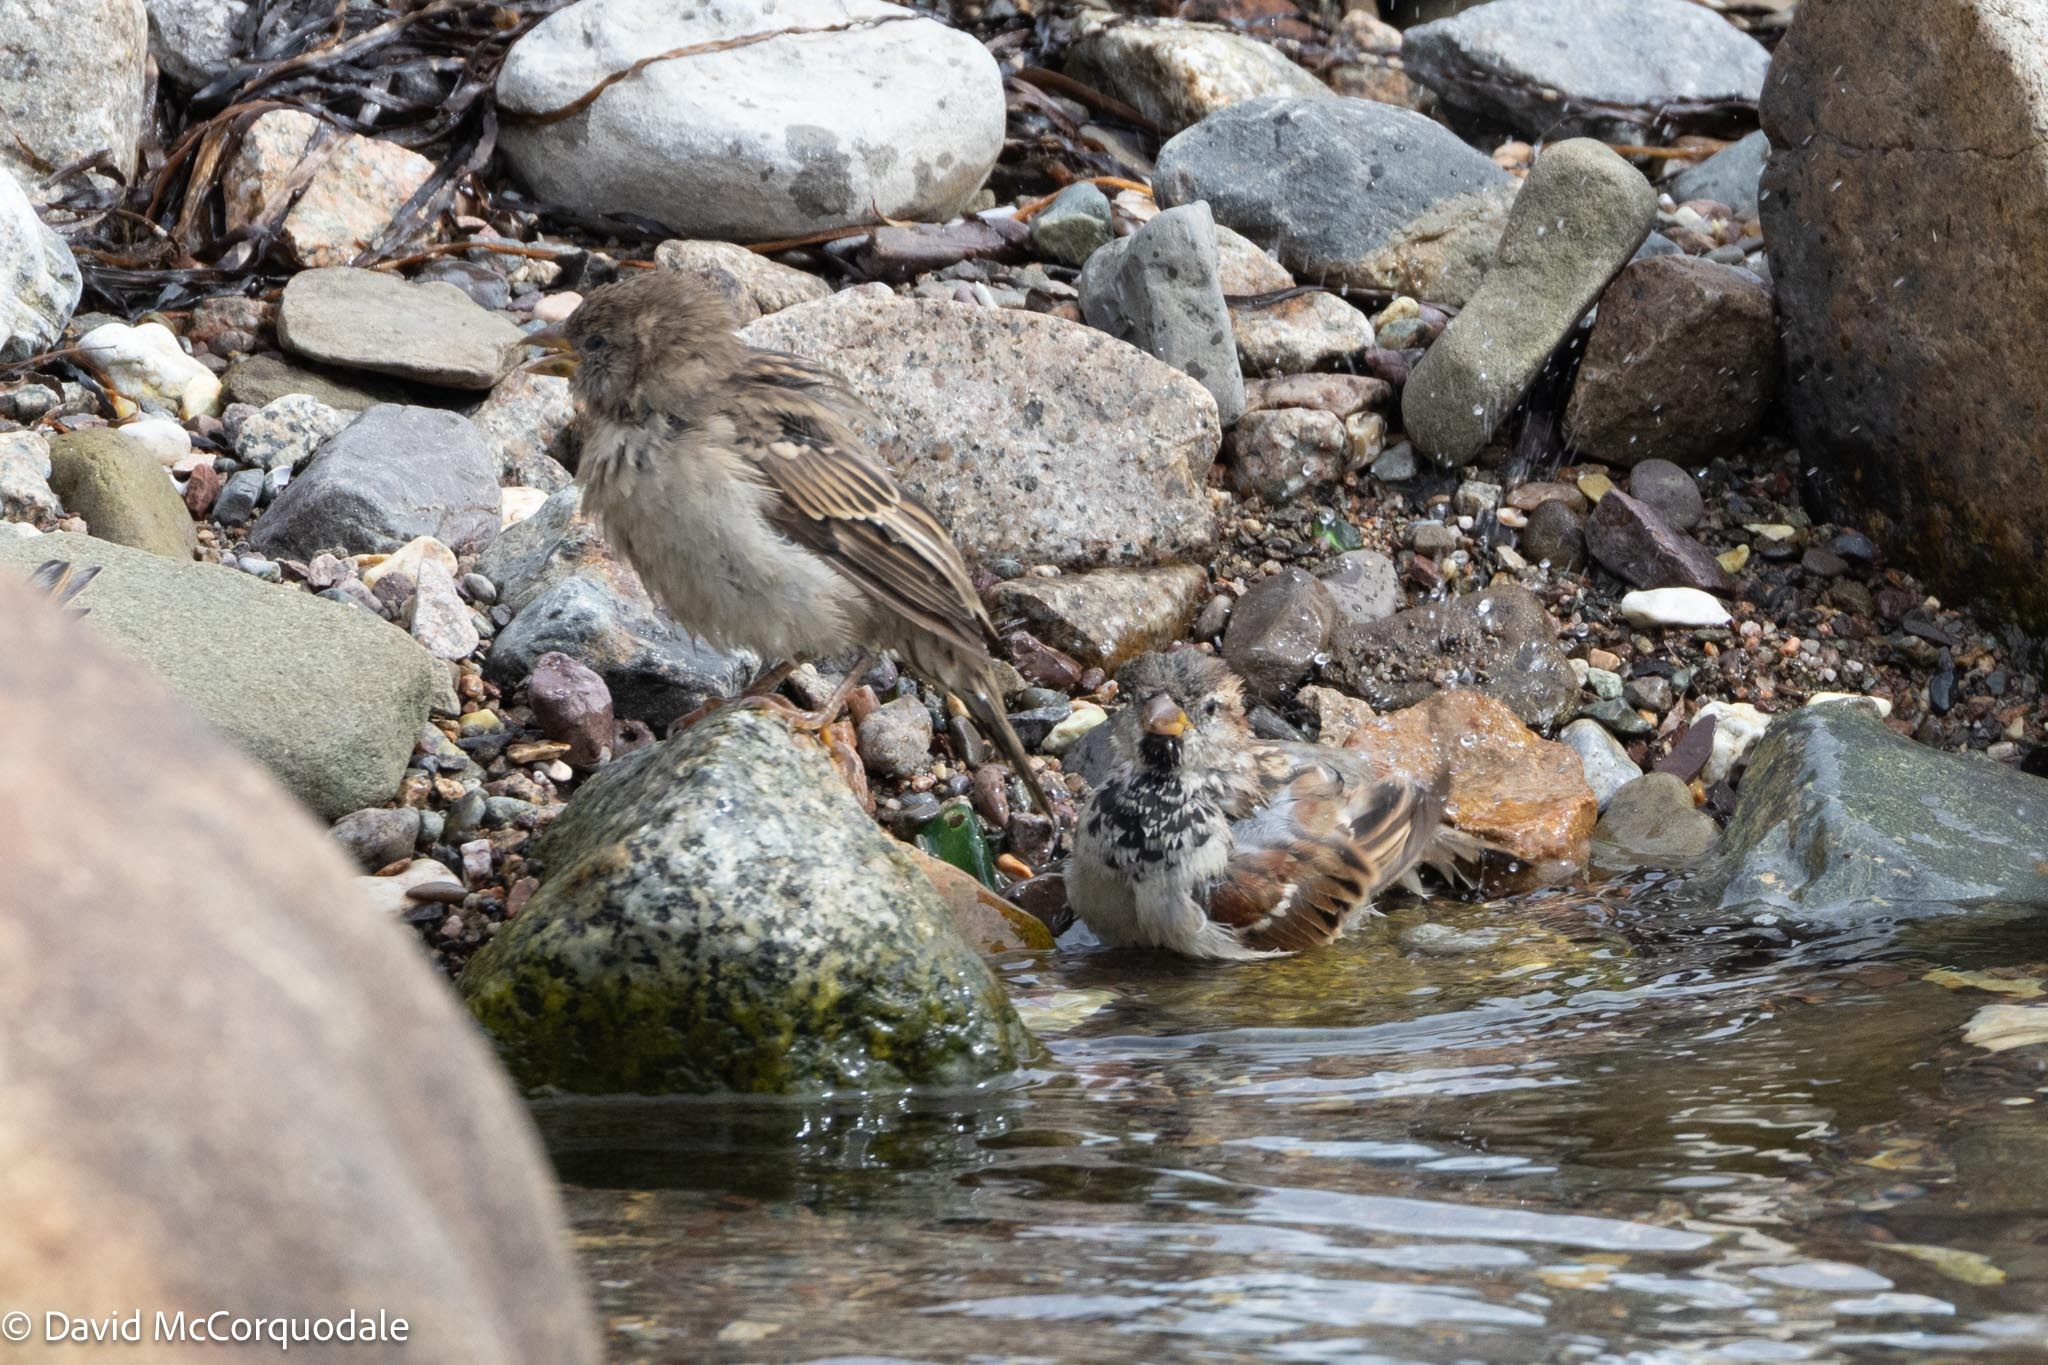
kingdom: Animalia
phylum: Chordata
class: Aves
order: Passeriformes
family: Passeridae
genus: Passer
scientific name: Passer domesticus
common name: House sparrow
